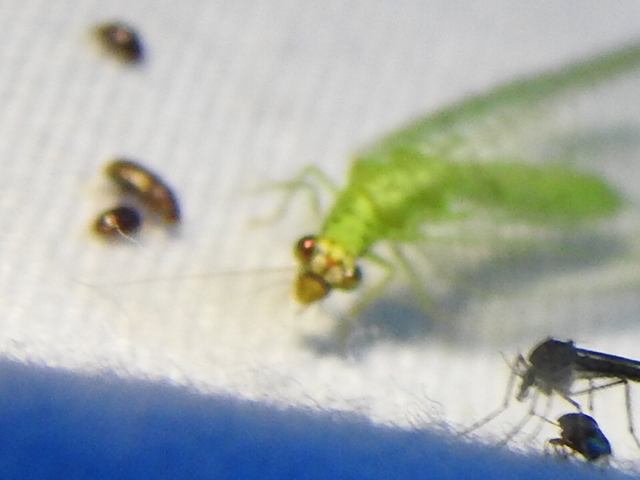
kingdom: Animalia
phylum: Arthropoda
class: Insecta
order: Neuroptera
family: Chrysopidae
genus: Chrysopa
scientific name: Chrysopa oculata
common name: Golden-eyed lacewing
